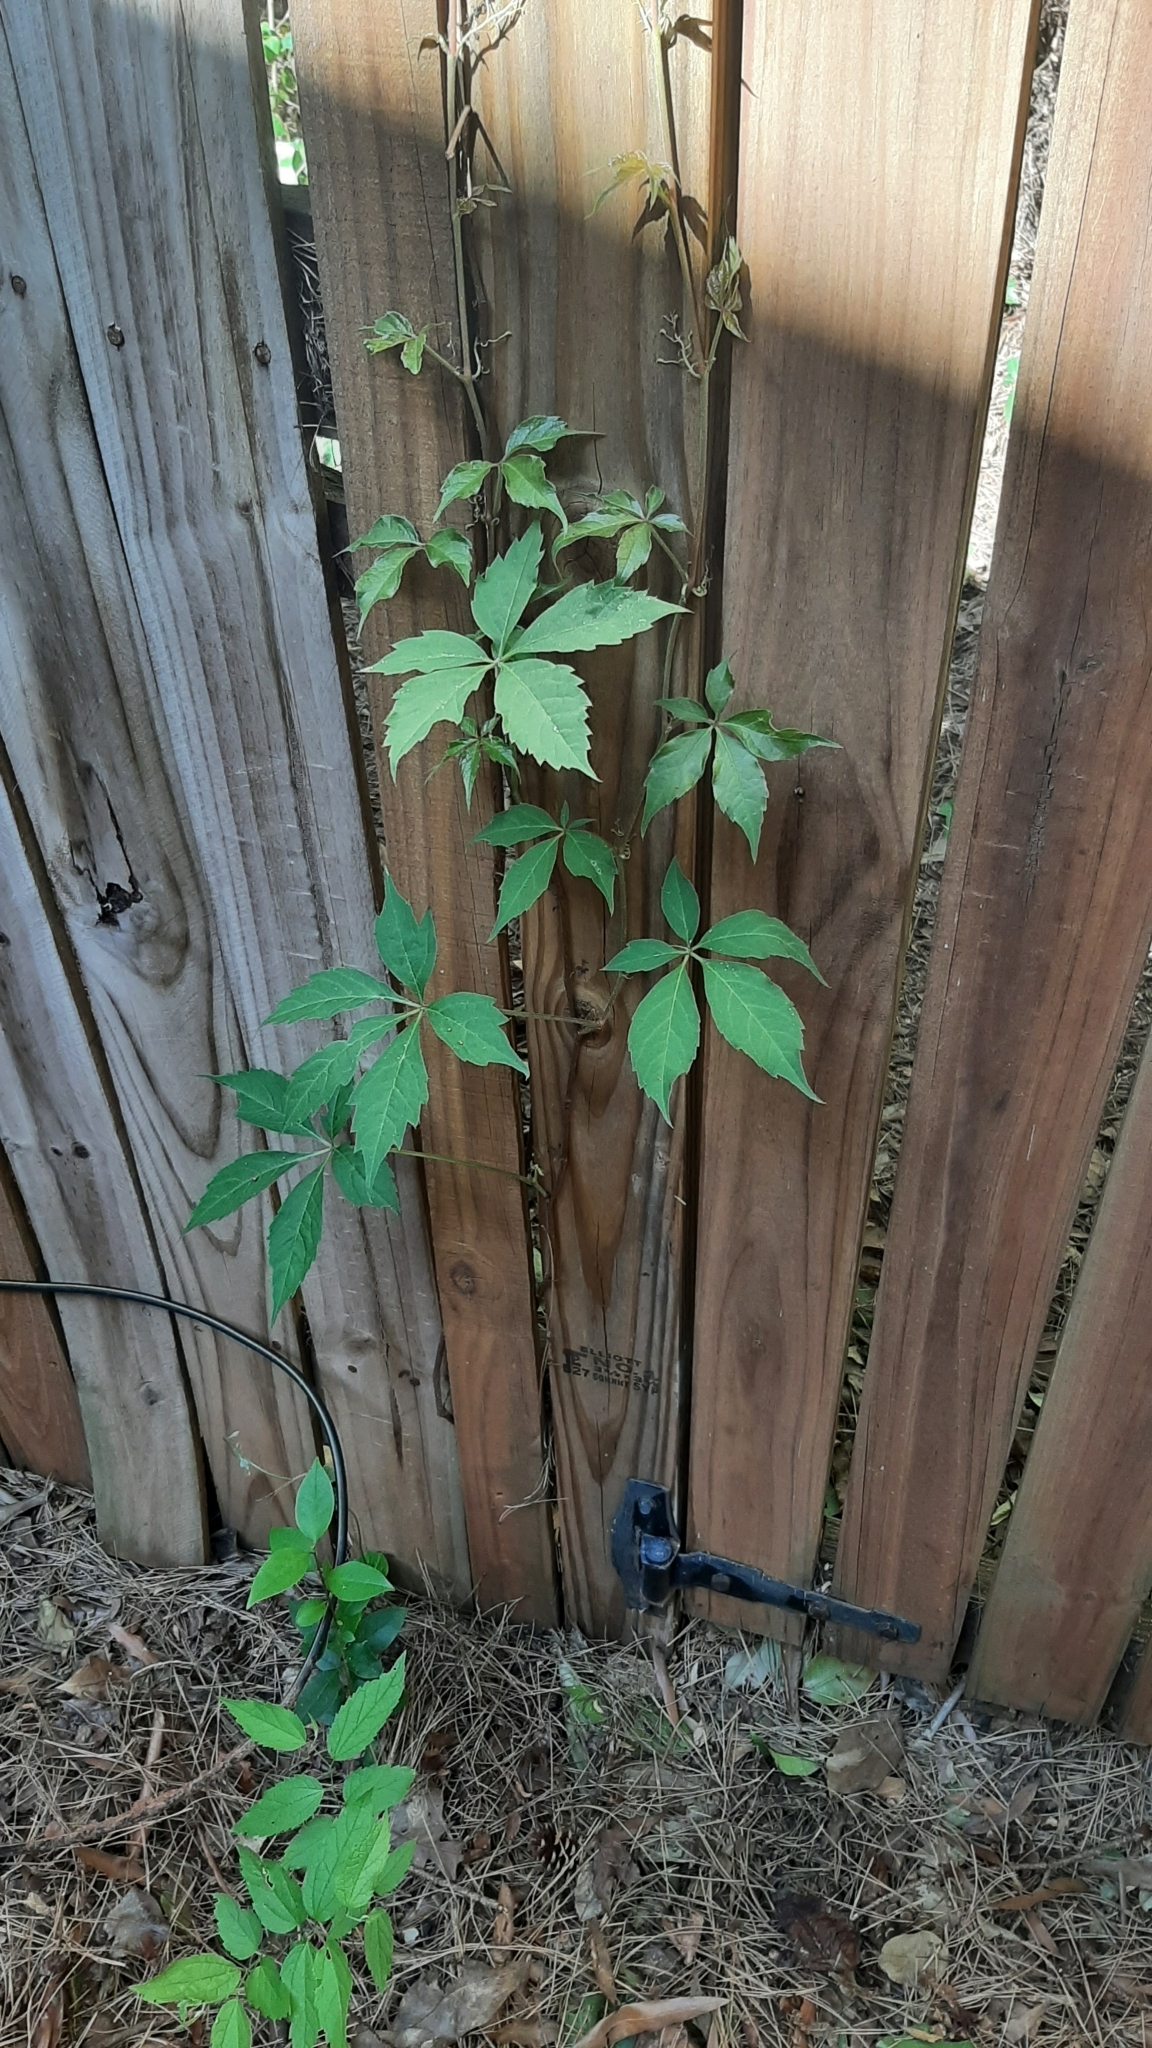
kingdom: Plantae
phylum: Tracheophyta
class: Magnoliopsida
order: Vitales
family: Vitaceae
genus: Parthenocissus
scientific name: Parthenocissus quinquefolia
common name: Virginia-creeper
